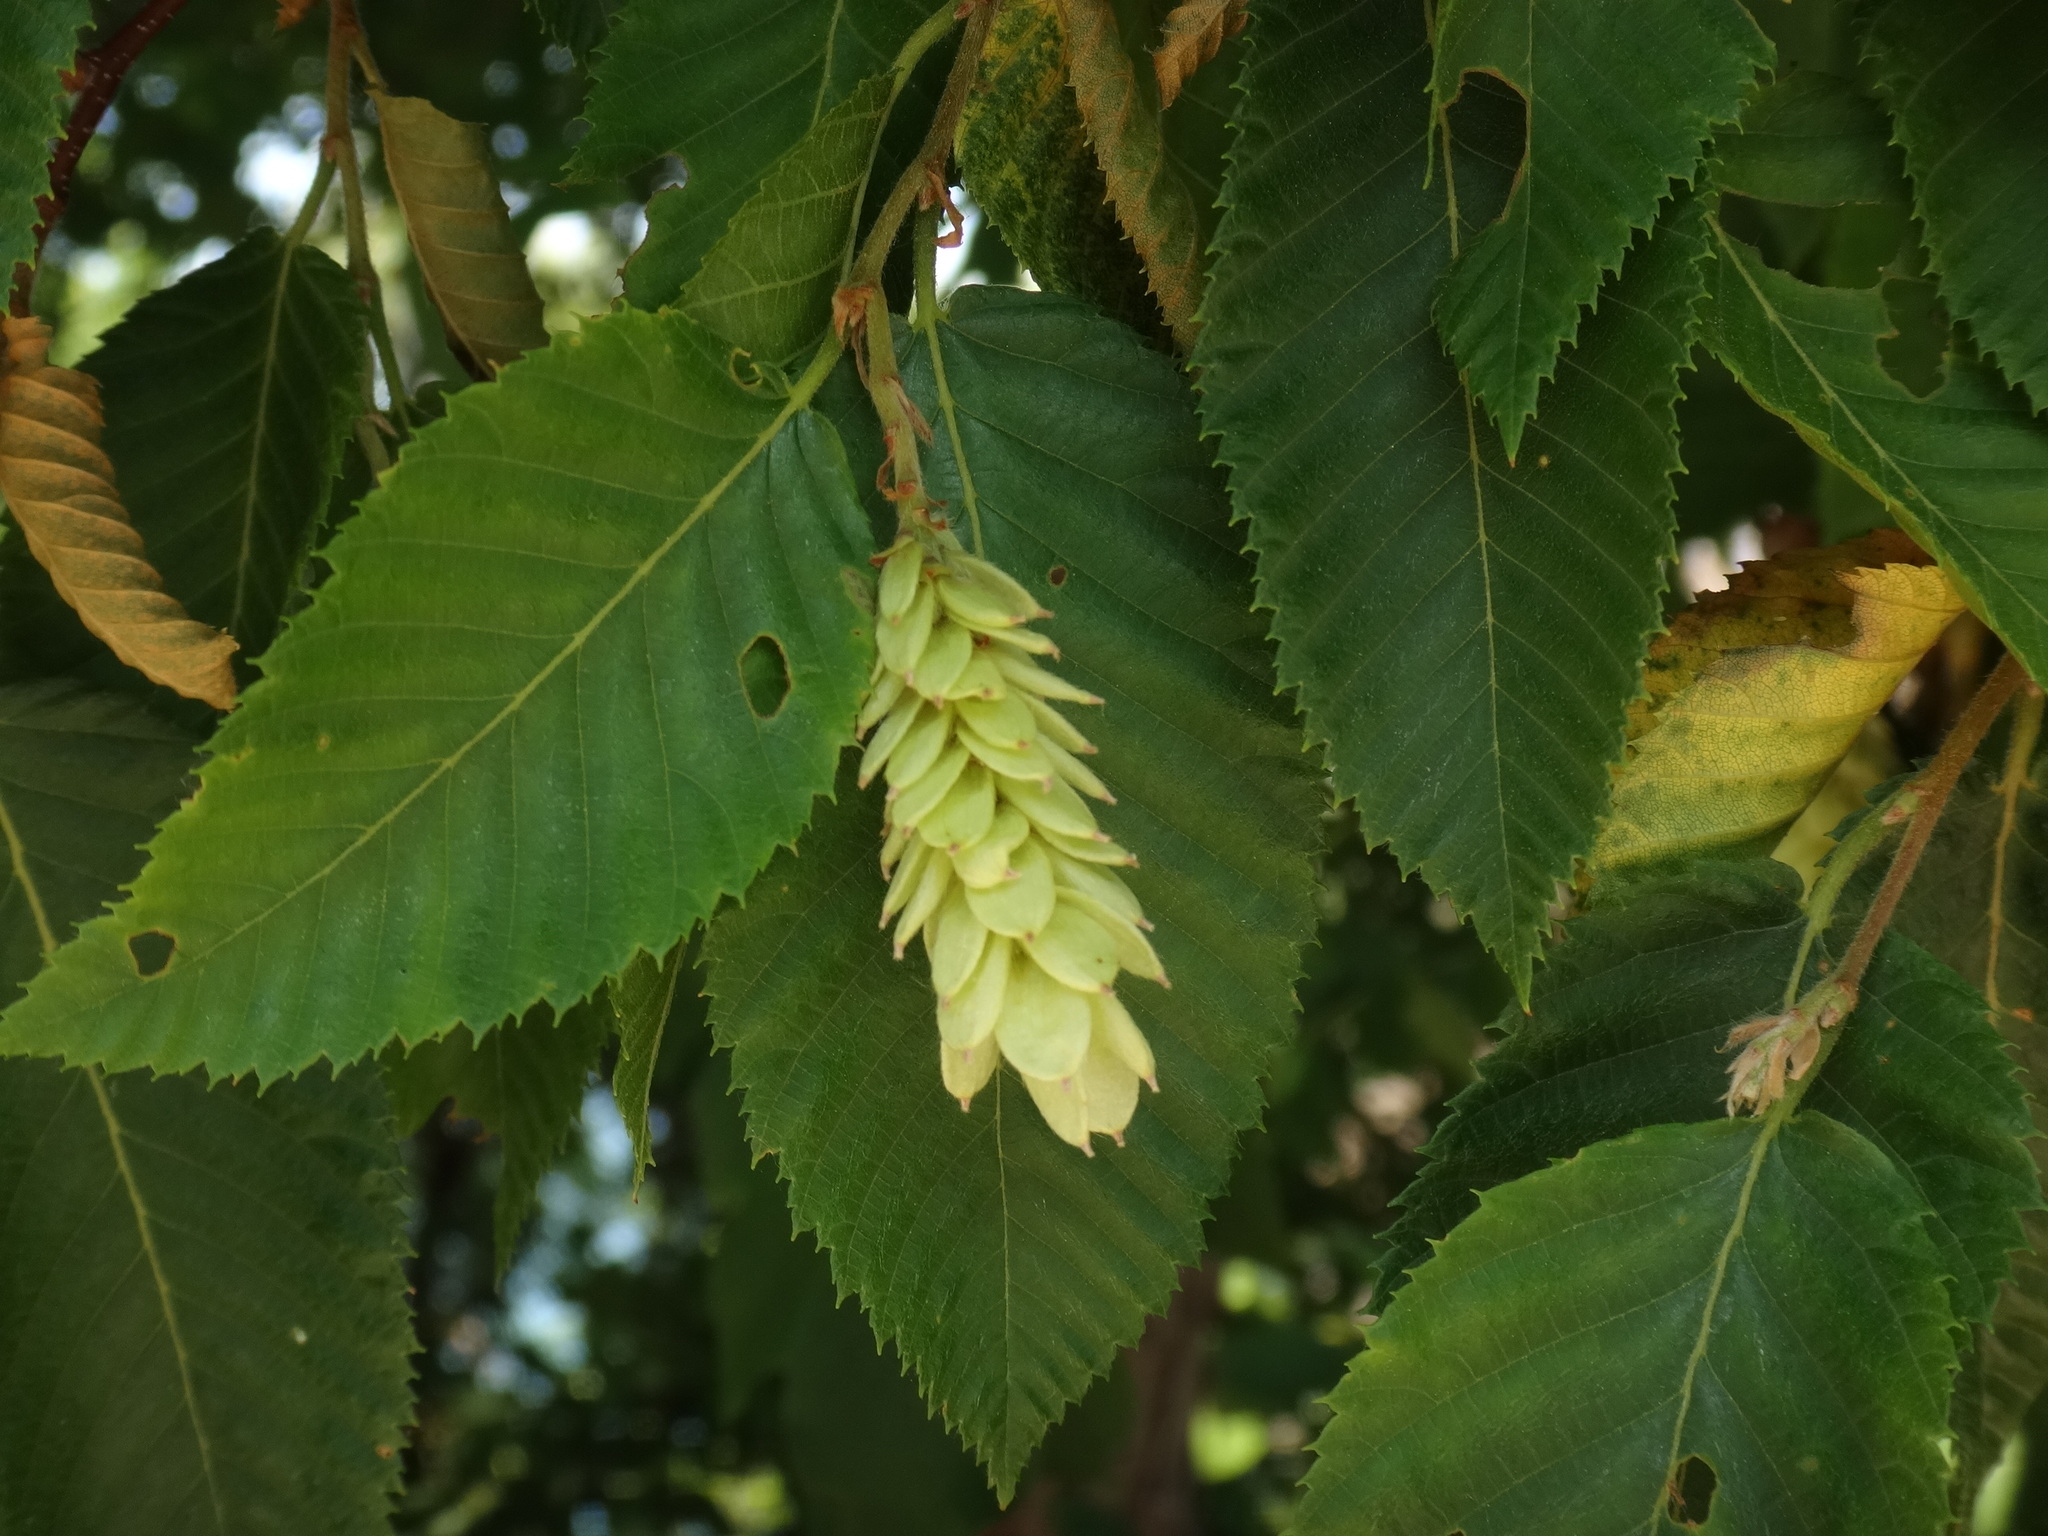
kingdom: Plantae
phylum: Tracheophyta
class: Magnoliopsida
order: Fagales
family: Betulaceae
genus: Ostrya
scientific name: Ostrya carpinifolia
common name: European hop-hornbeam
